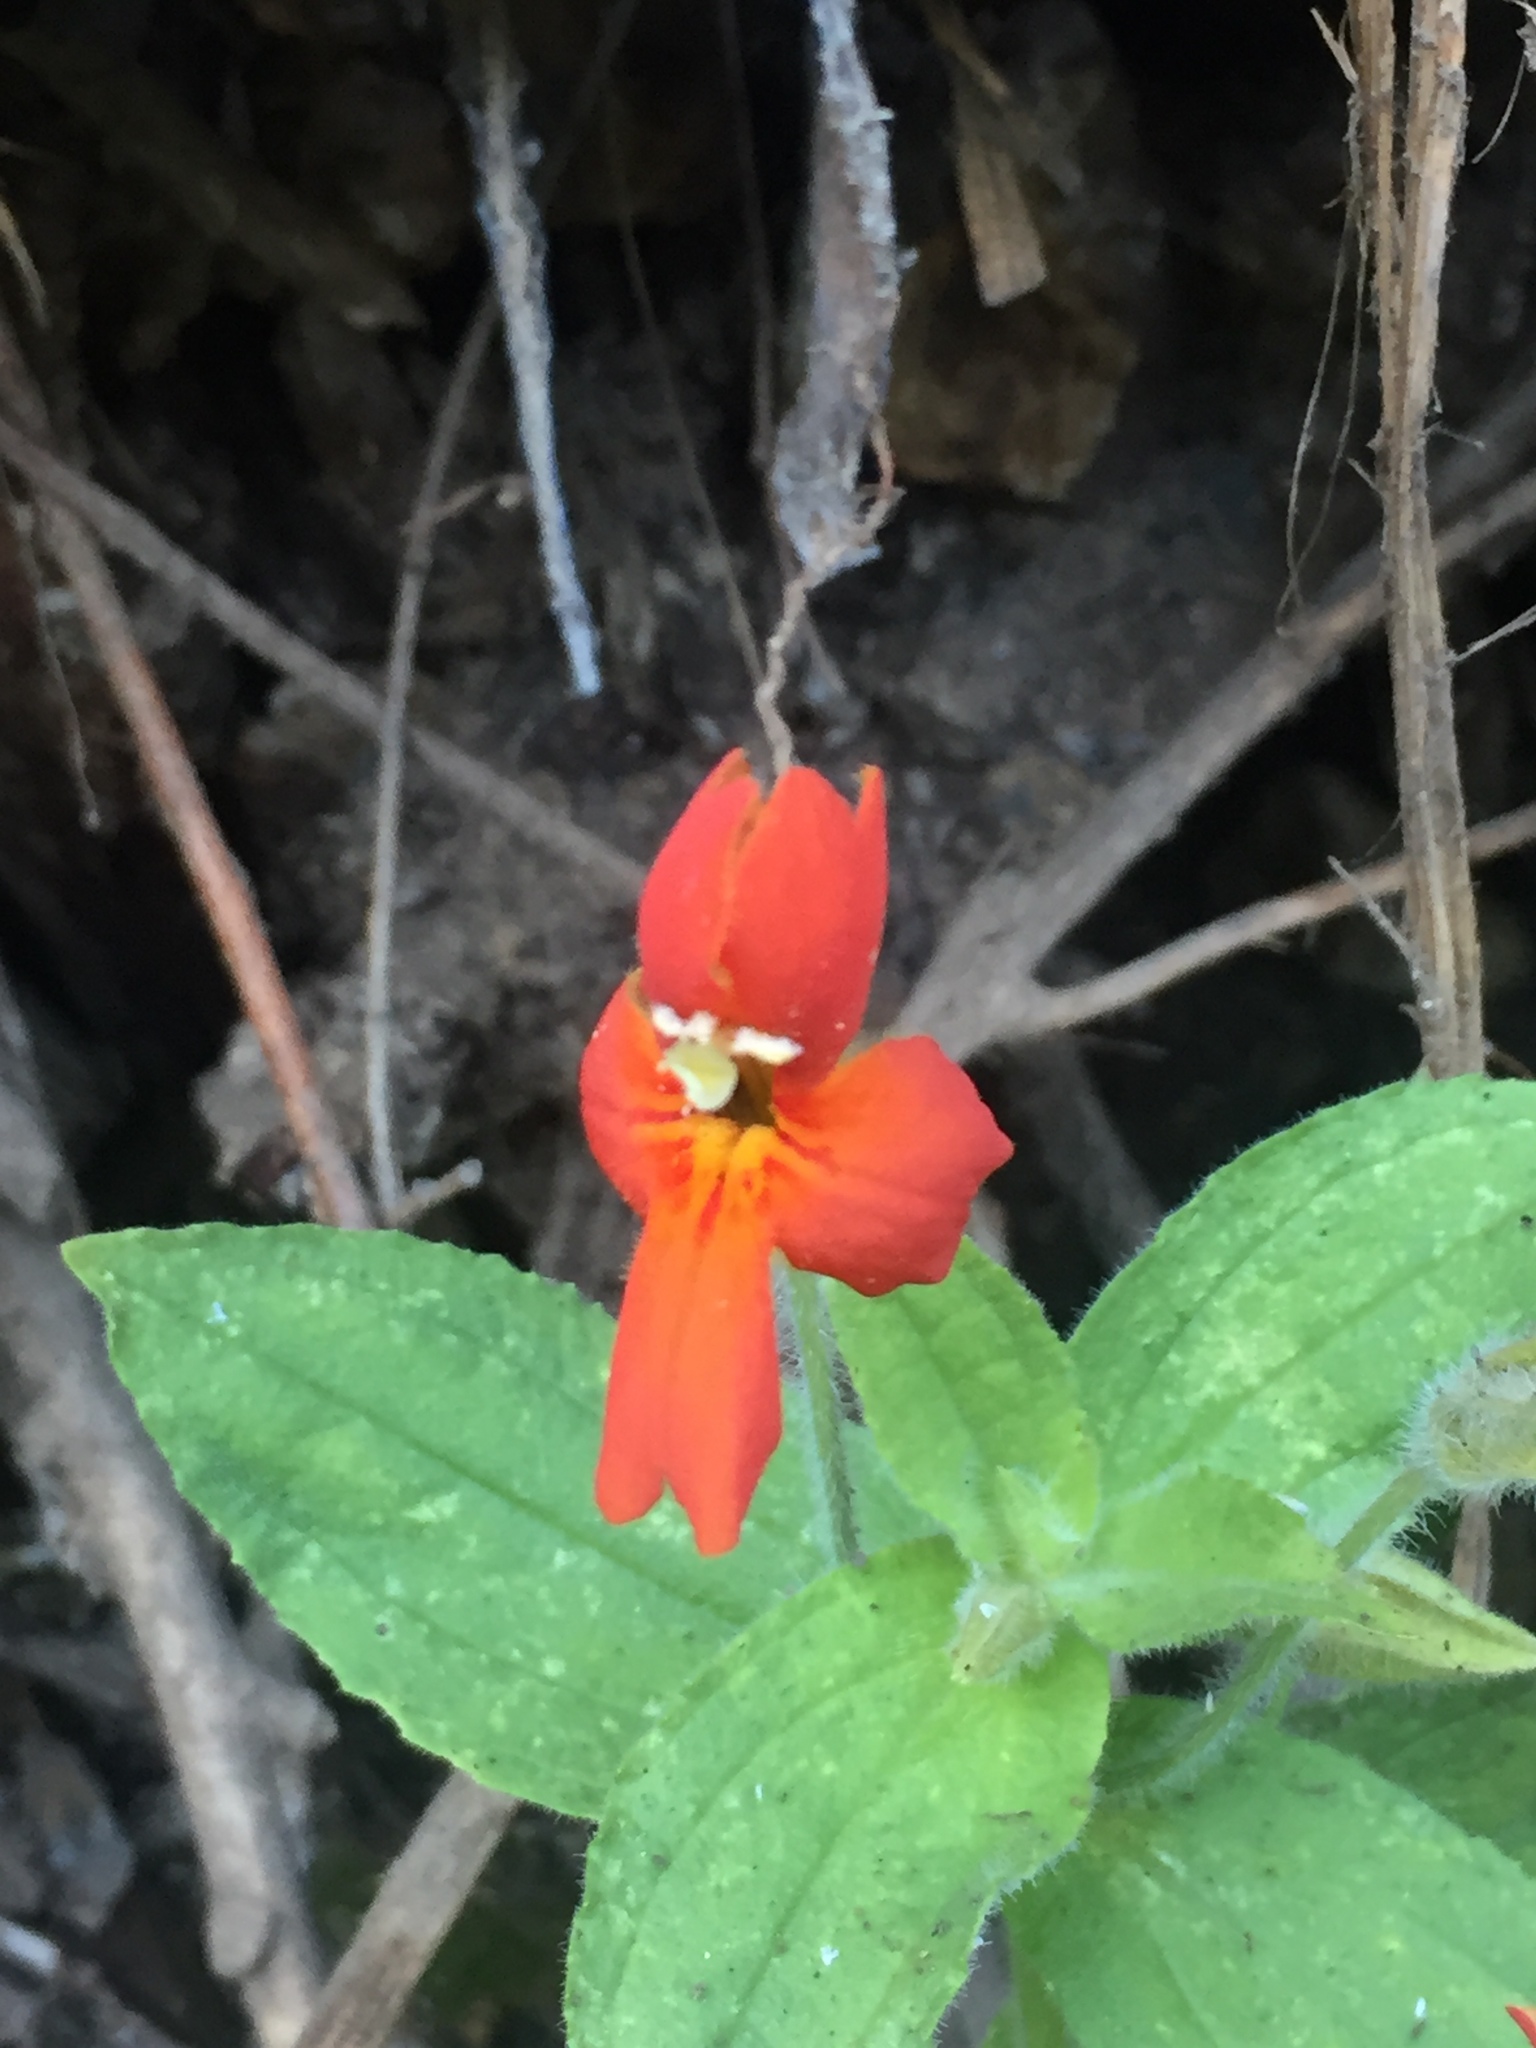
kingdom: Plantae
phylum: Tracheophyta
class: Magnoliopsida
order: Lamiales
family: Phrymaceae
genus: Erythranthe
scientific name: Erythranthe cardinalis
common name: Scarlet monkey-flower
